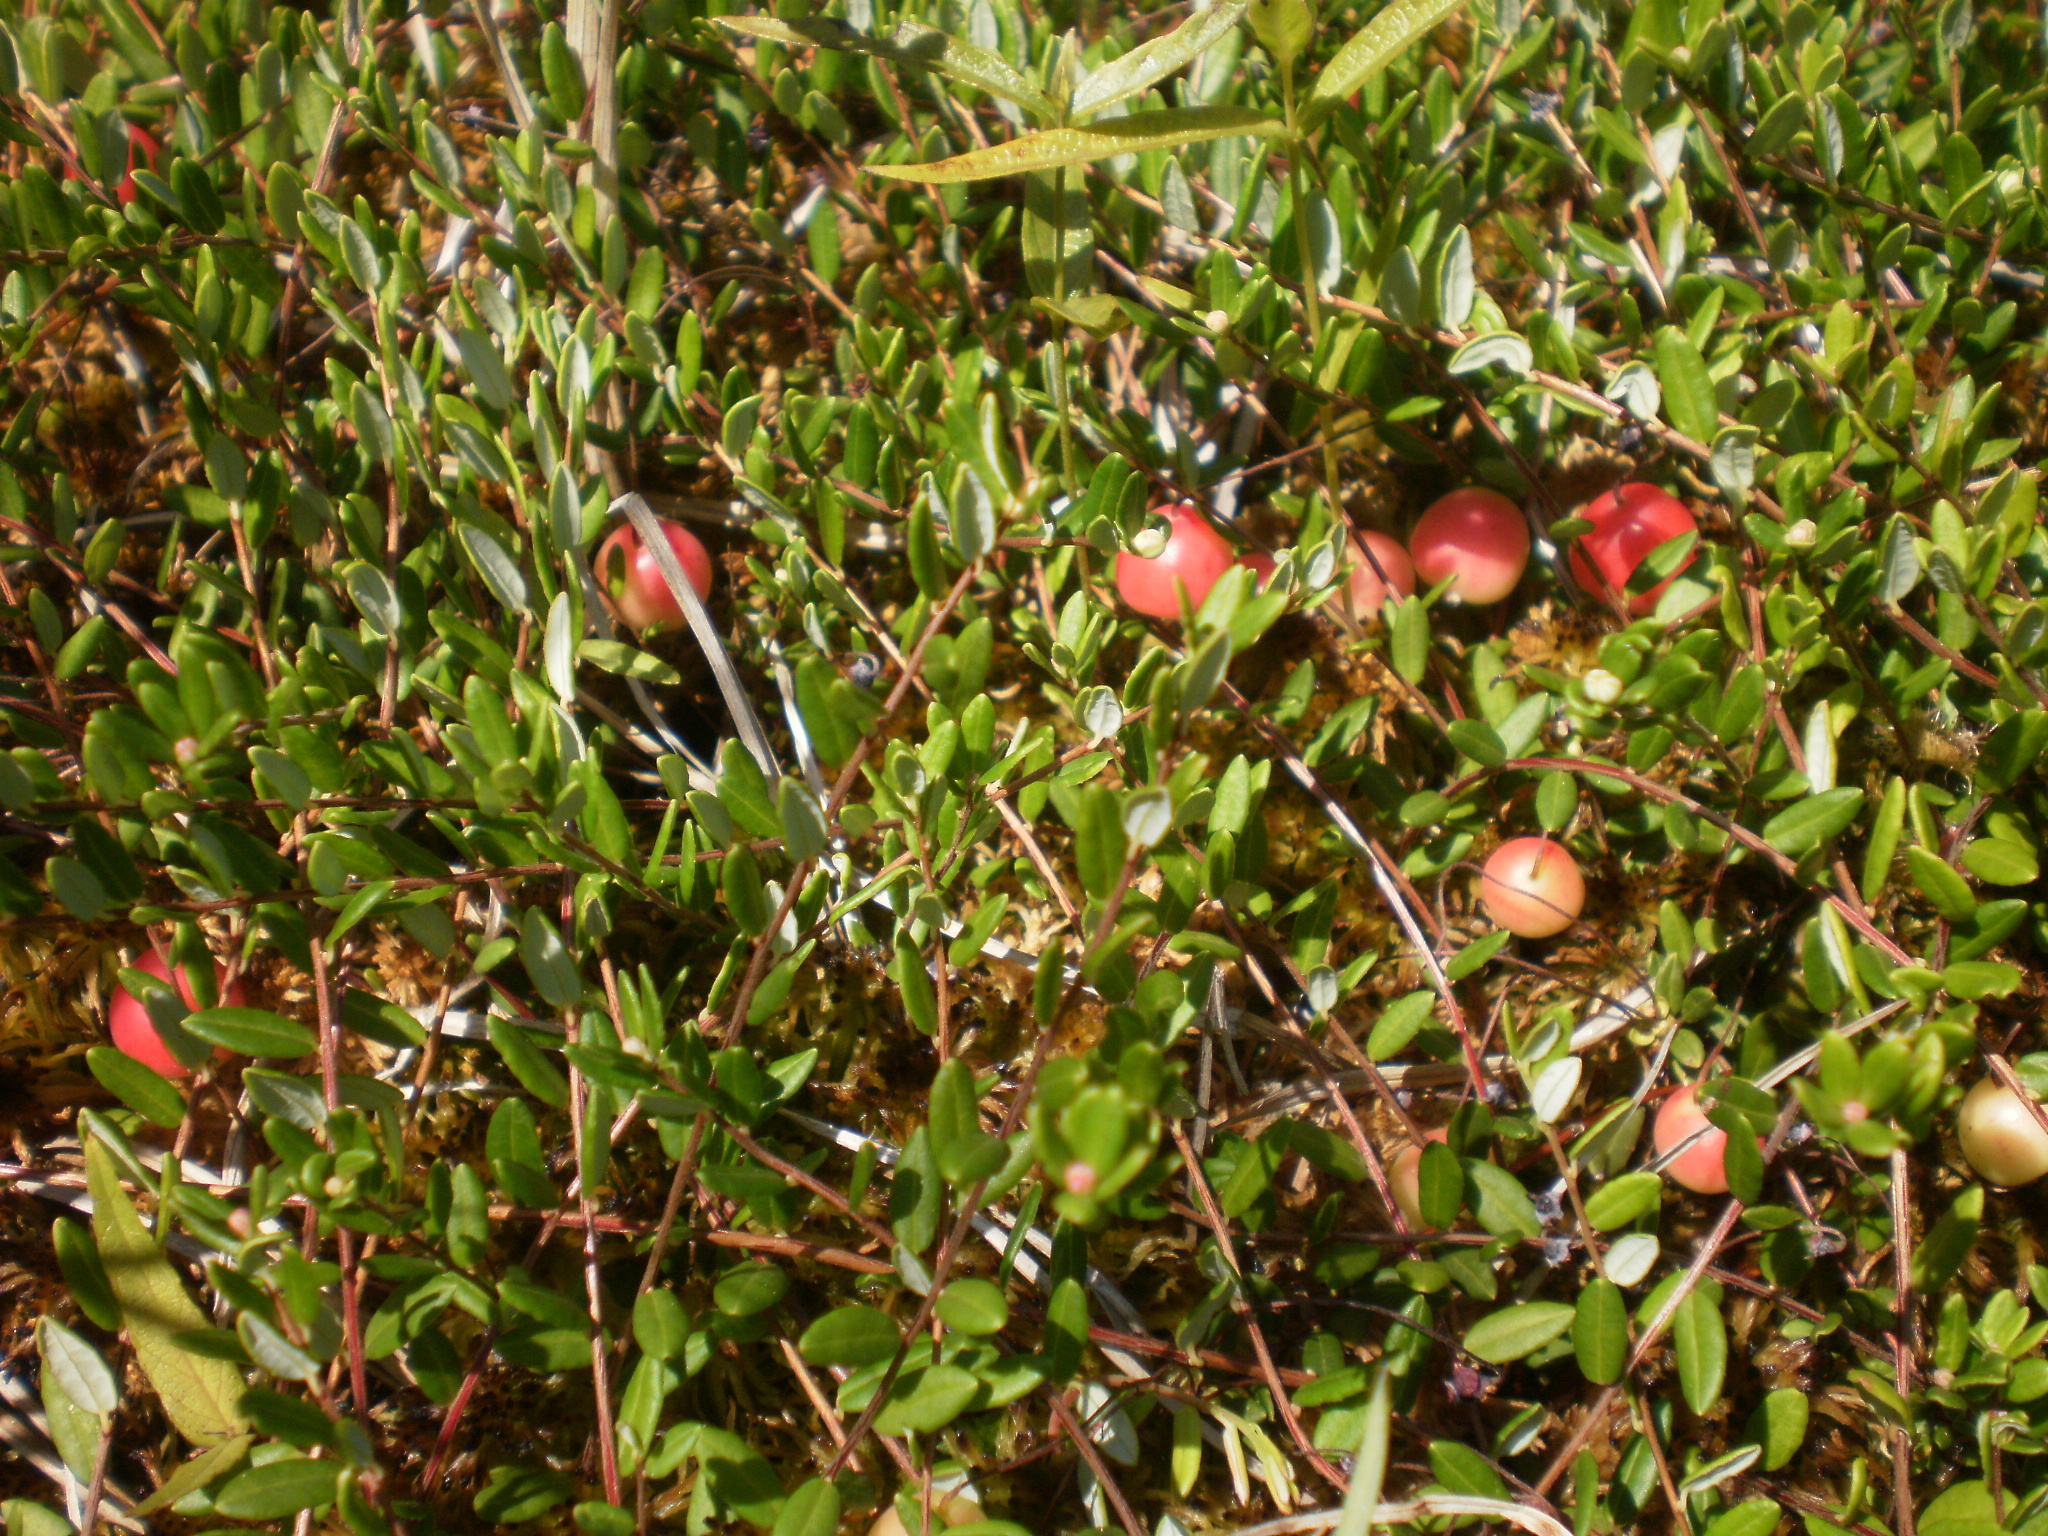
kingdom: Plantae
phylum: Tracheophyta
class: Magnoliopsida
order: Ericales
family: Ericaceae
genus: Vaccinium
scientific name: Vaccinium oxycoccos
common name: Cranberry
